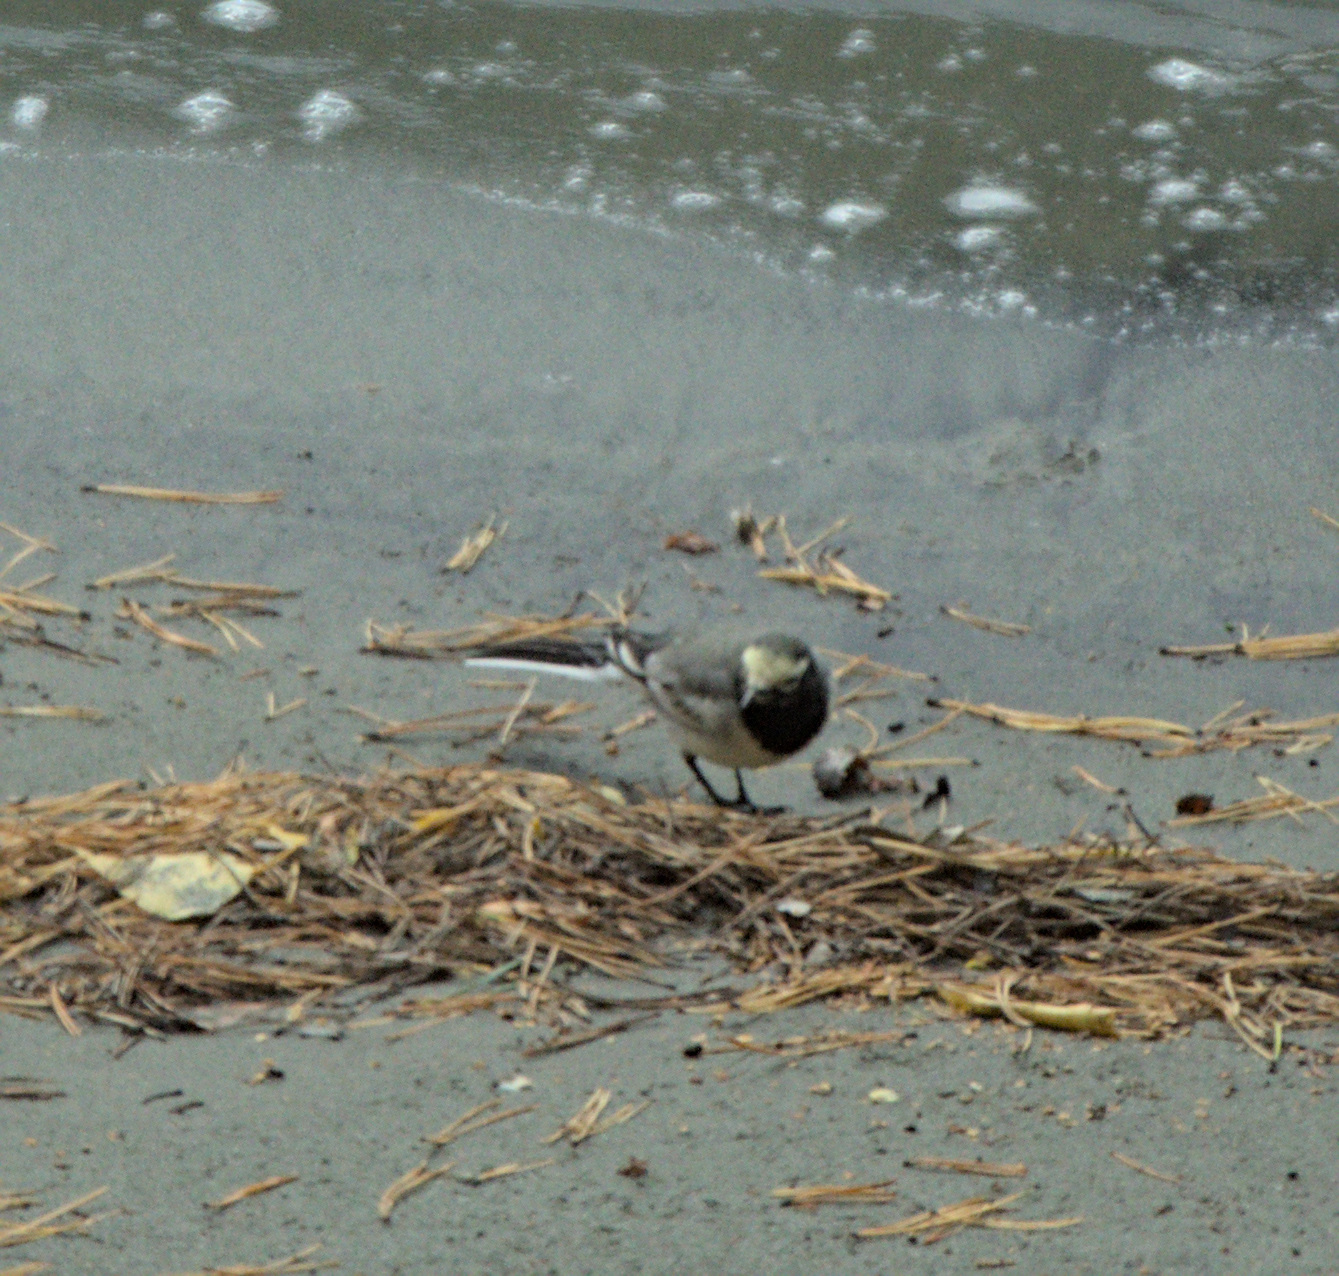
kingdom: Animalia
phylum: Chordata
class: Aves
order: Passeriformes
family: Motacillidae
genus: Motacilla
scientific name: Motacilla alba
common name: White wagtail
